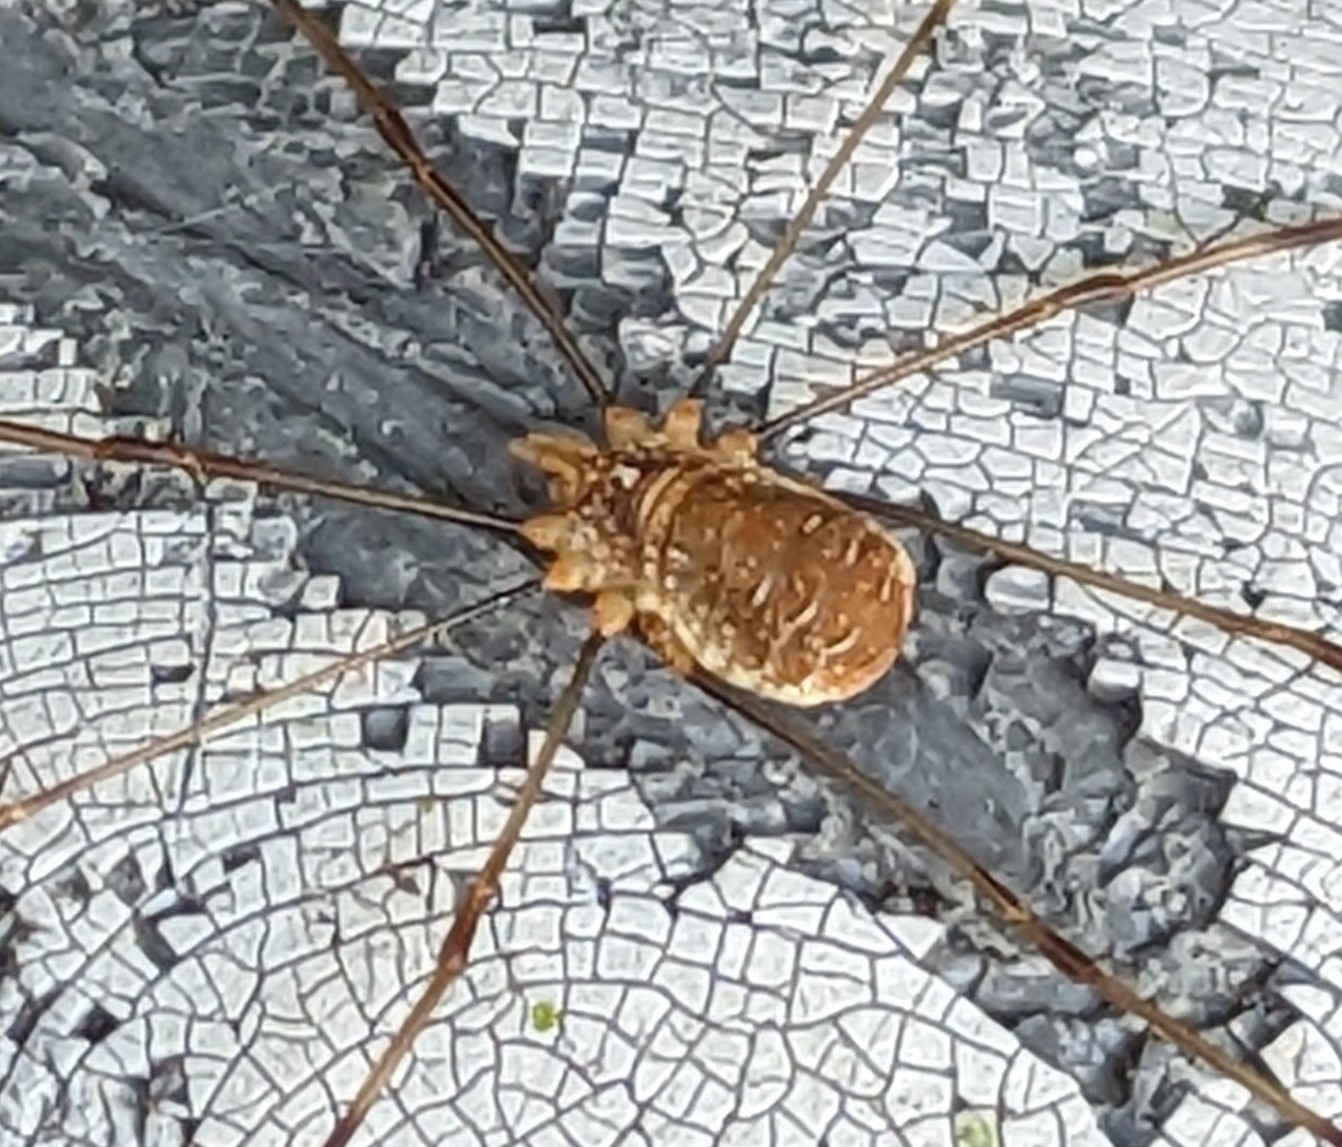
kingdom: Animalia
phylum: Arthropoda
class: Arachnida
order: Opiliones
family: Phalangiidae
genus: Opilio
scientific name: Opilio canestrinii
